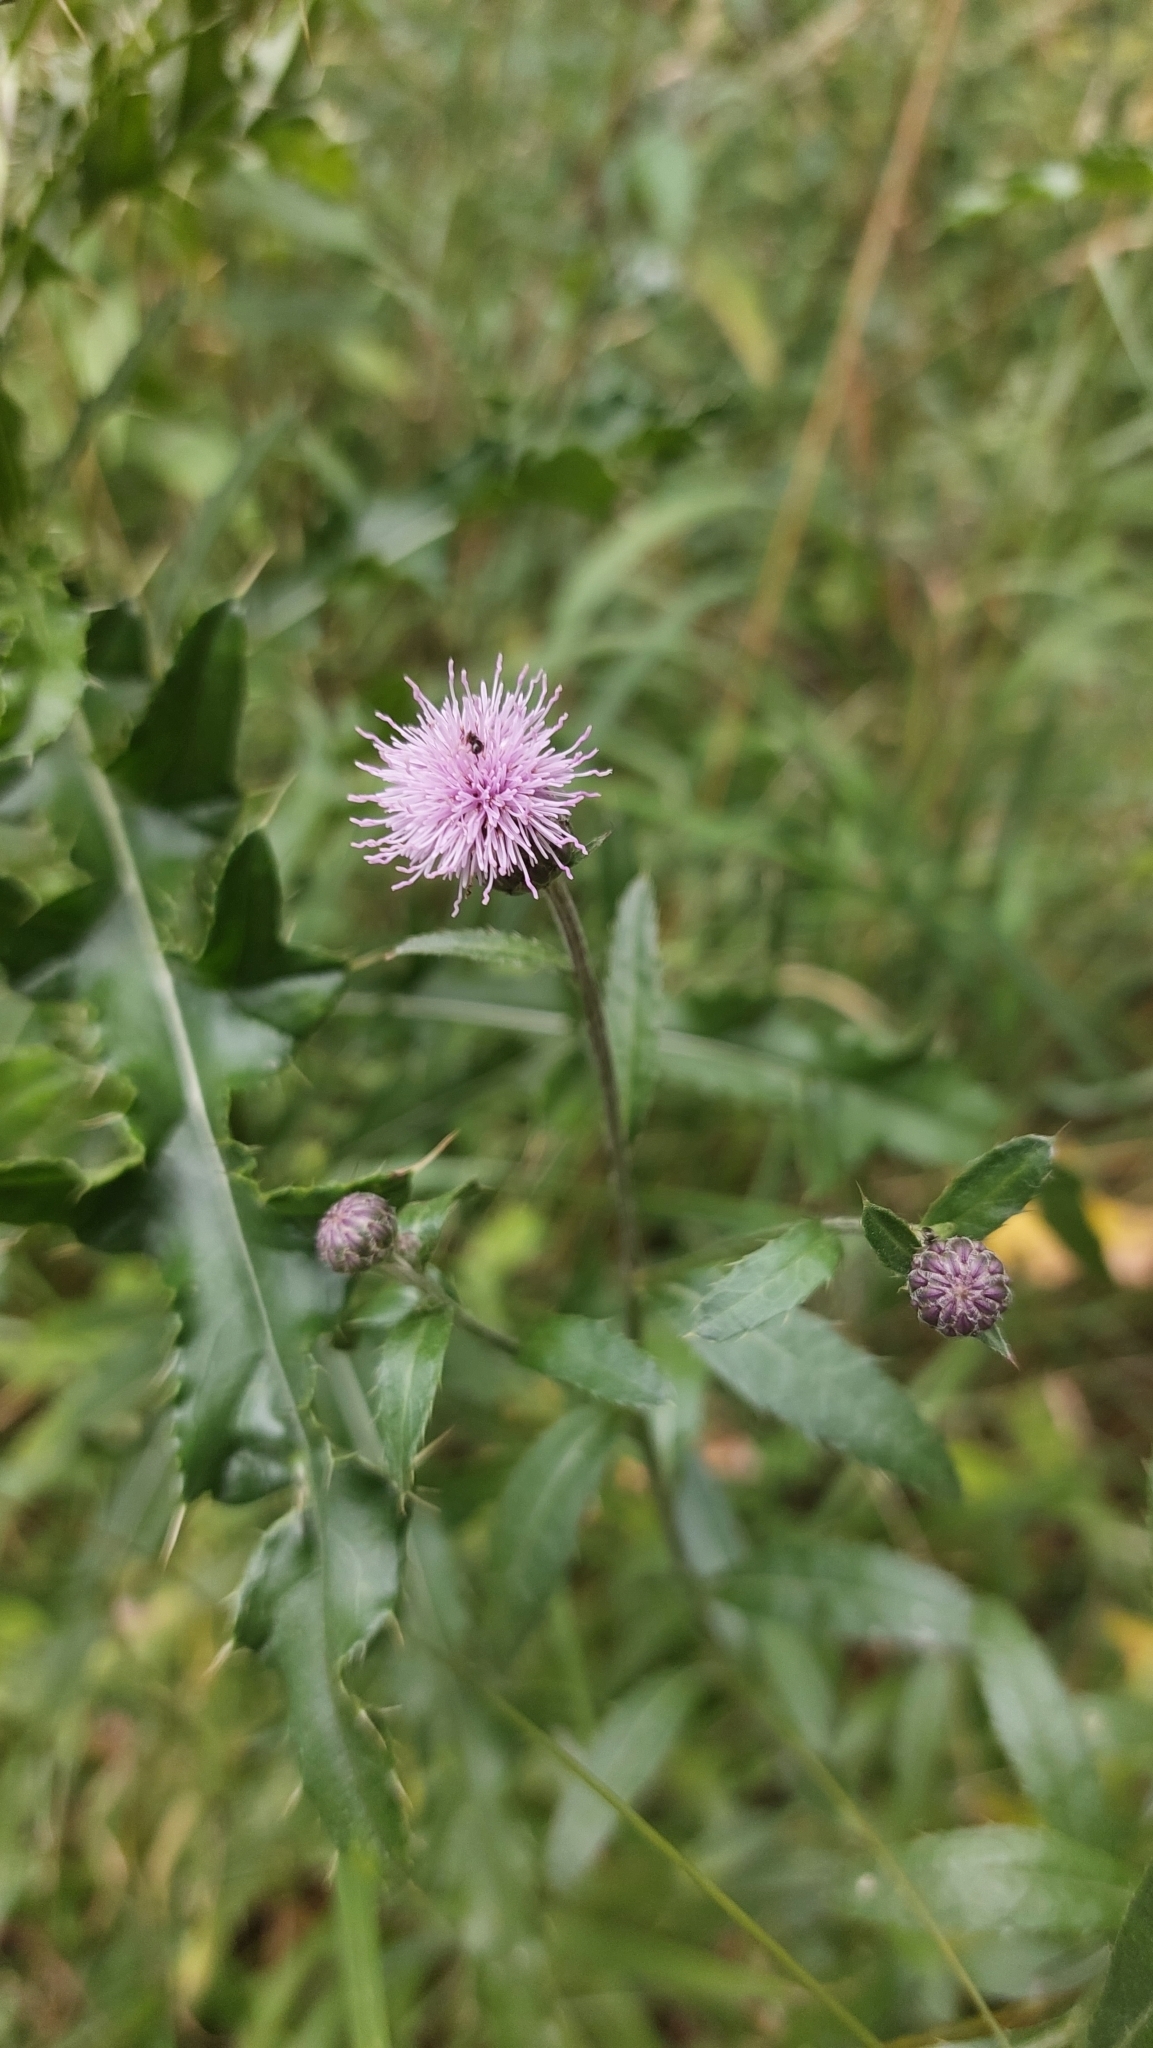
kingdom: Plantae
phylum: Tracheophyta
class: Magnoliopsida
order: Asterales
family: Asteraceae
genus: Cirsium
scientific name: Cirsium arvense
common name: Creeping thistle
